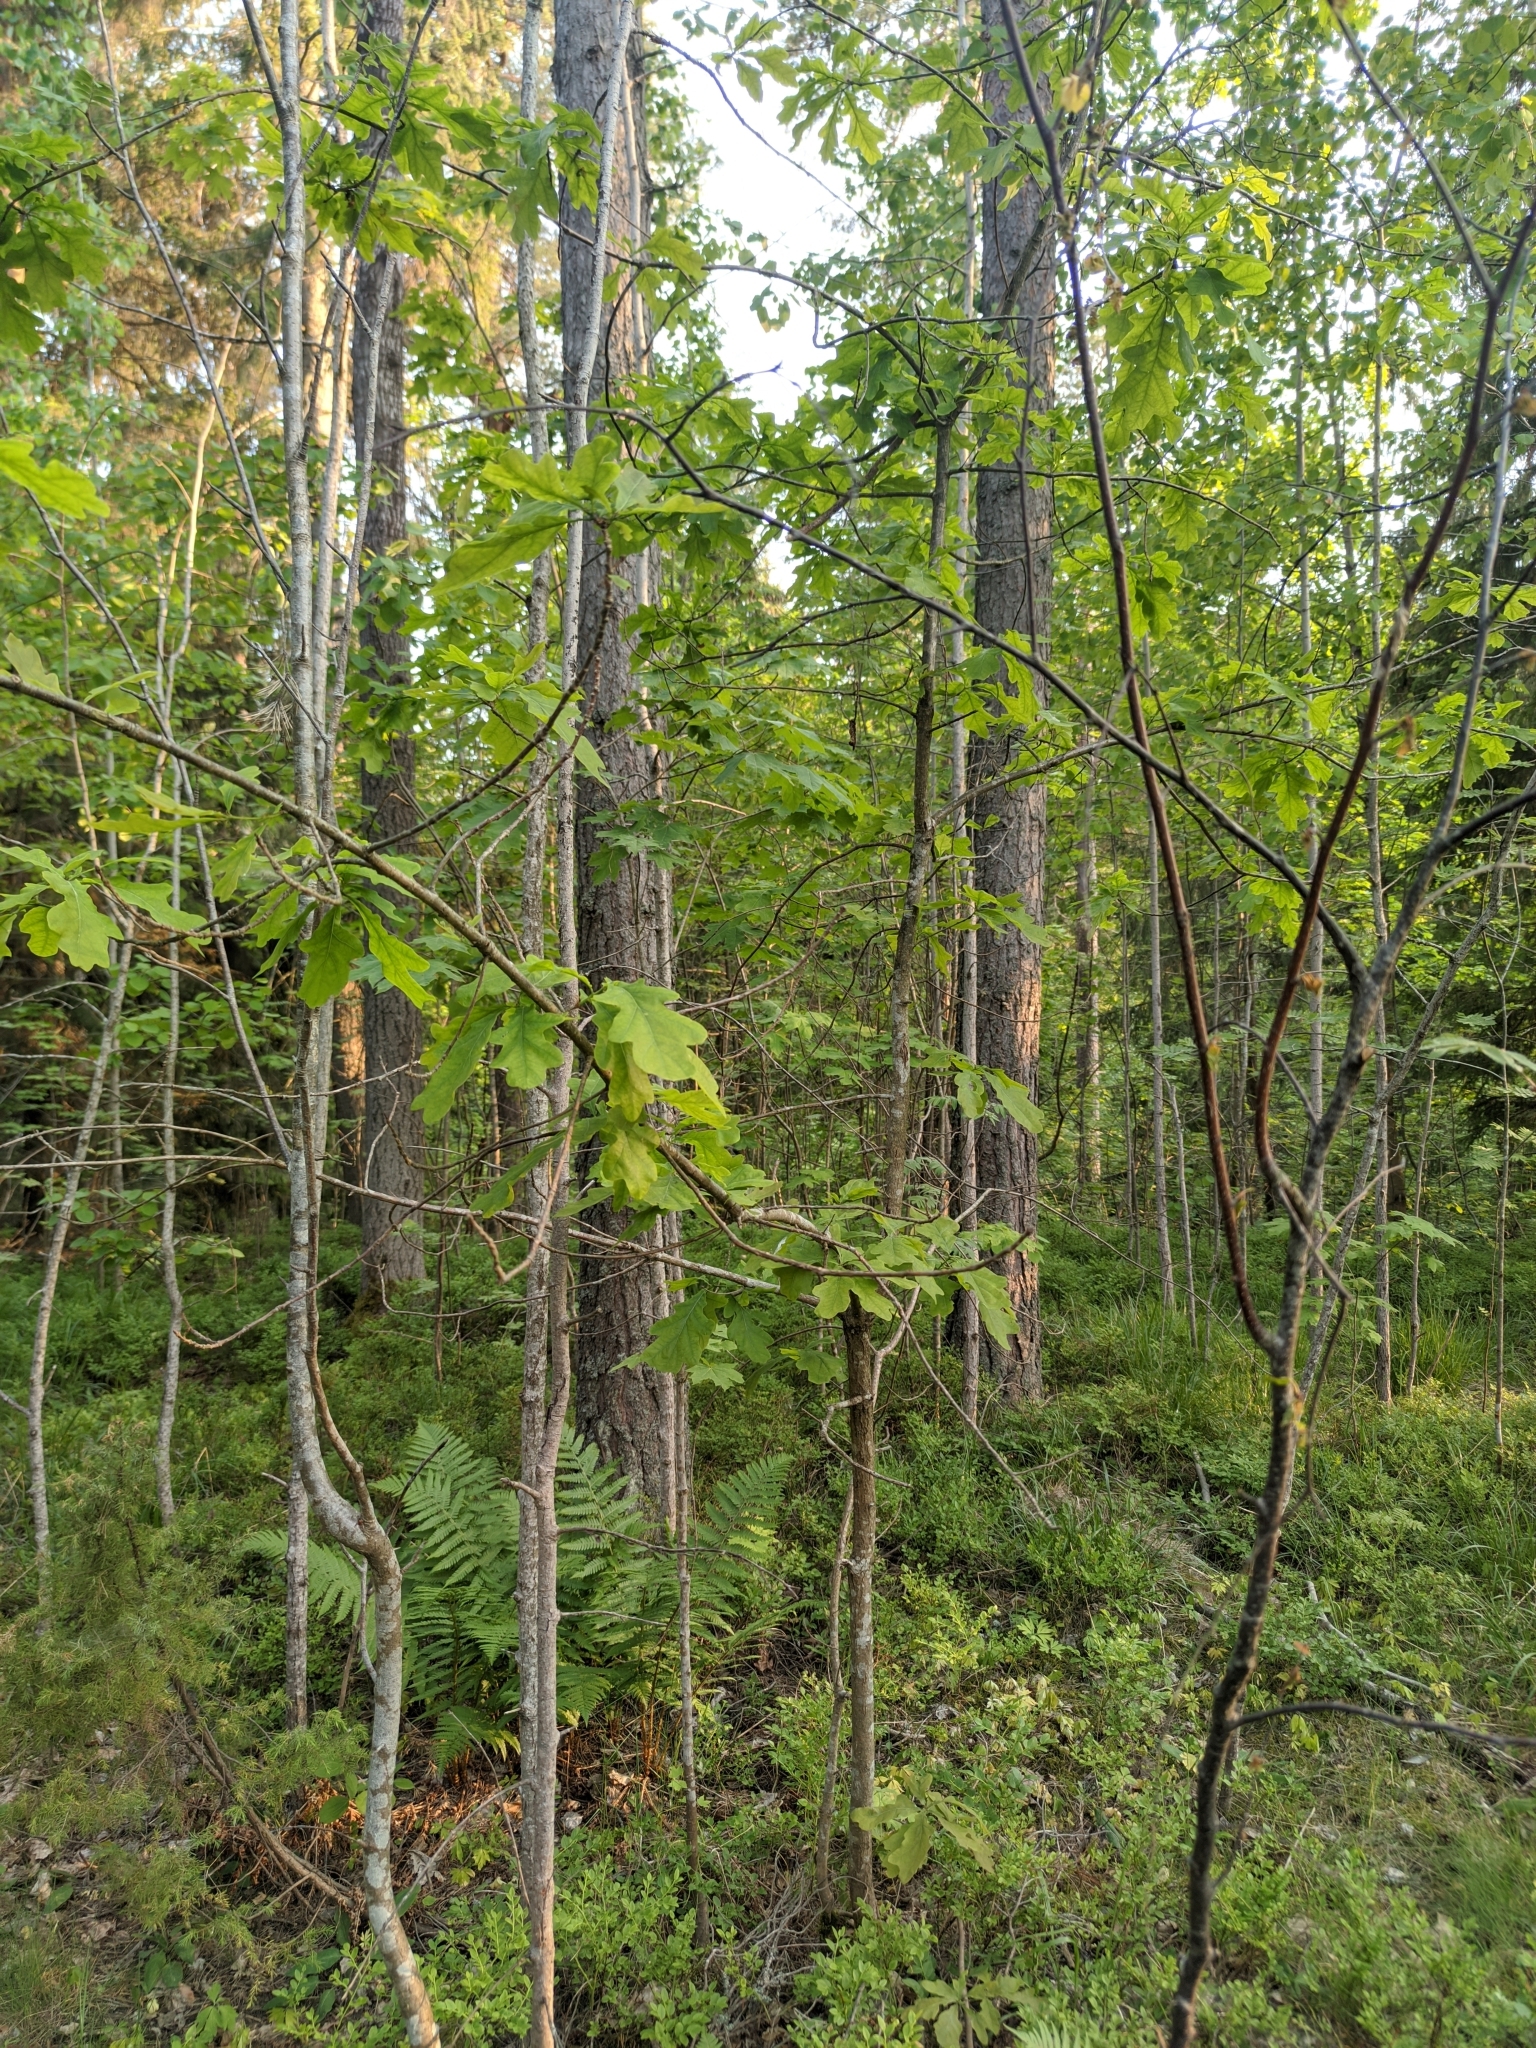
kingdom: Plantae
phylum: Tracheophyta
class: Magnoliopsida
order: Fagales
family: Fagaceae
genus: Quercus
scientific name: Quercus robur
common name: Pedunculate oak
